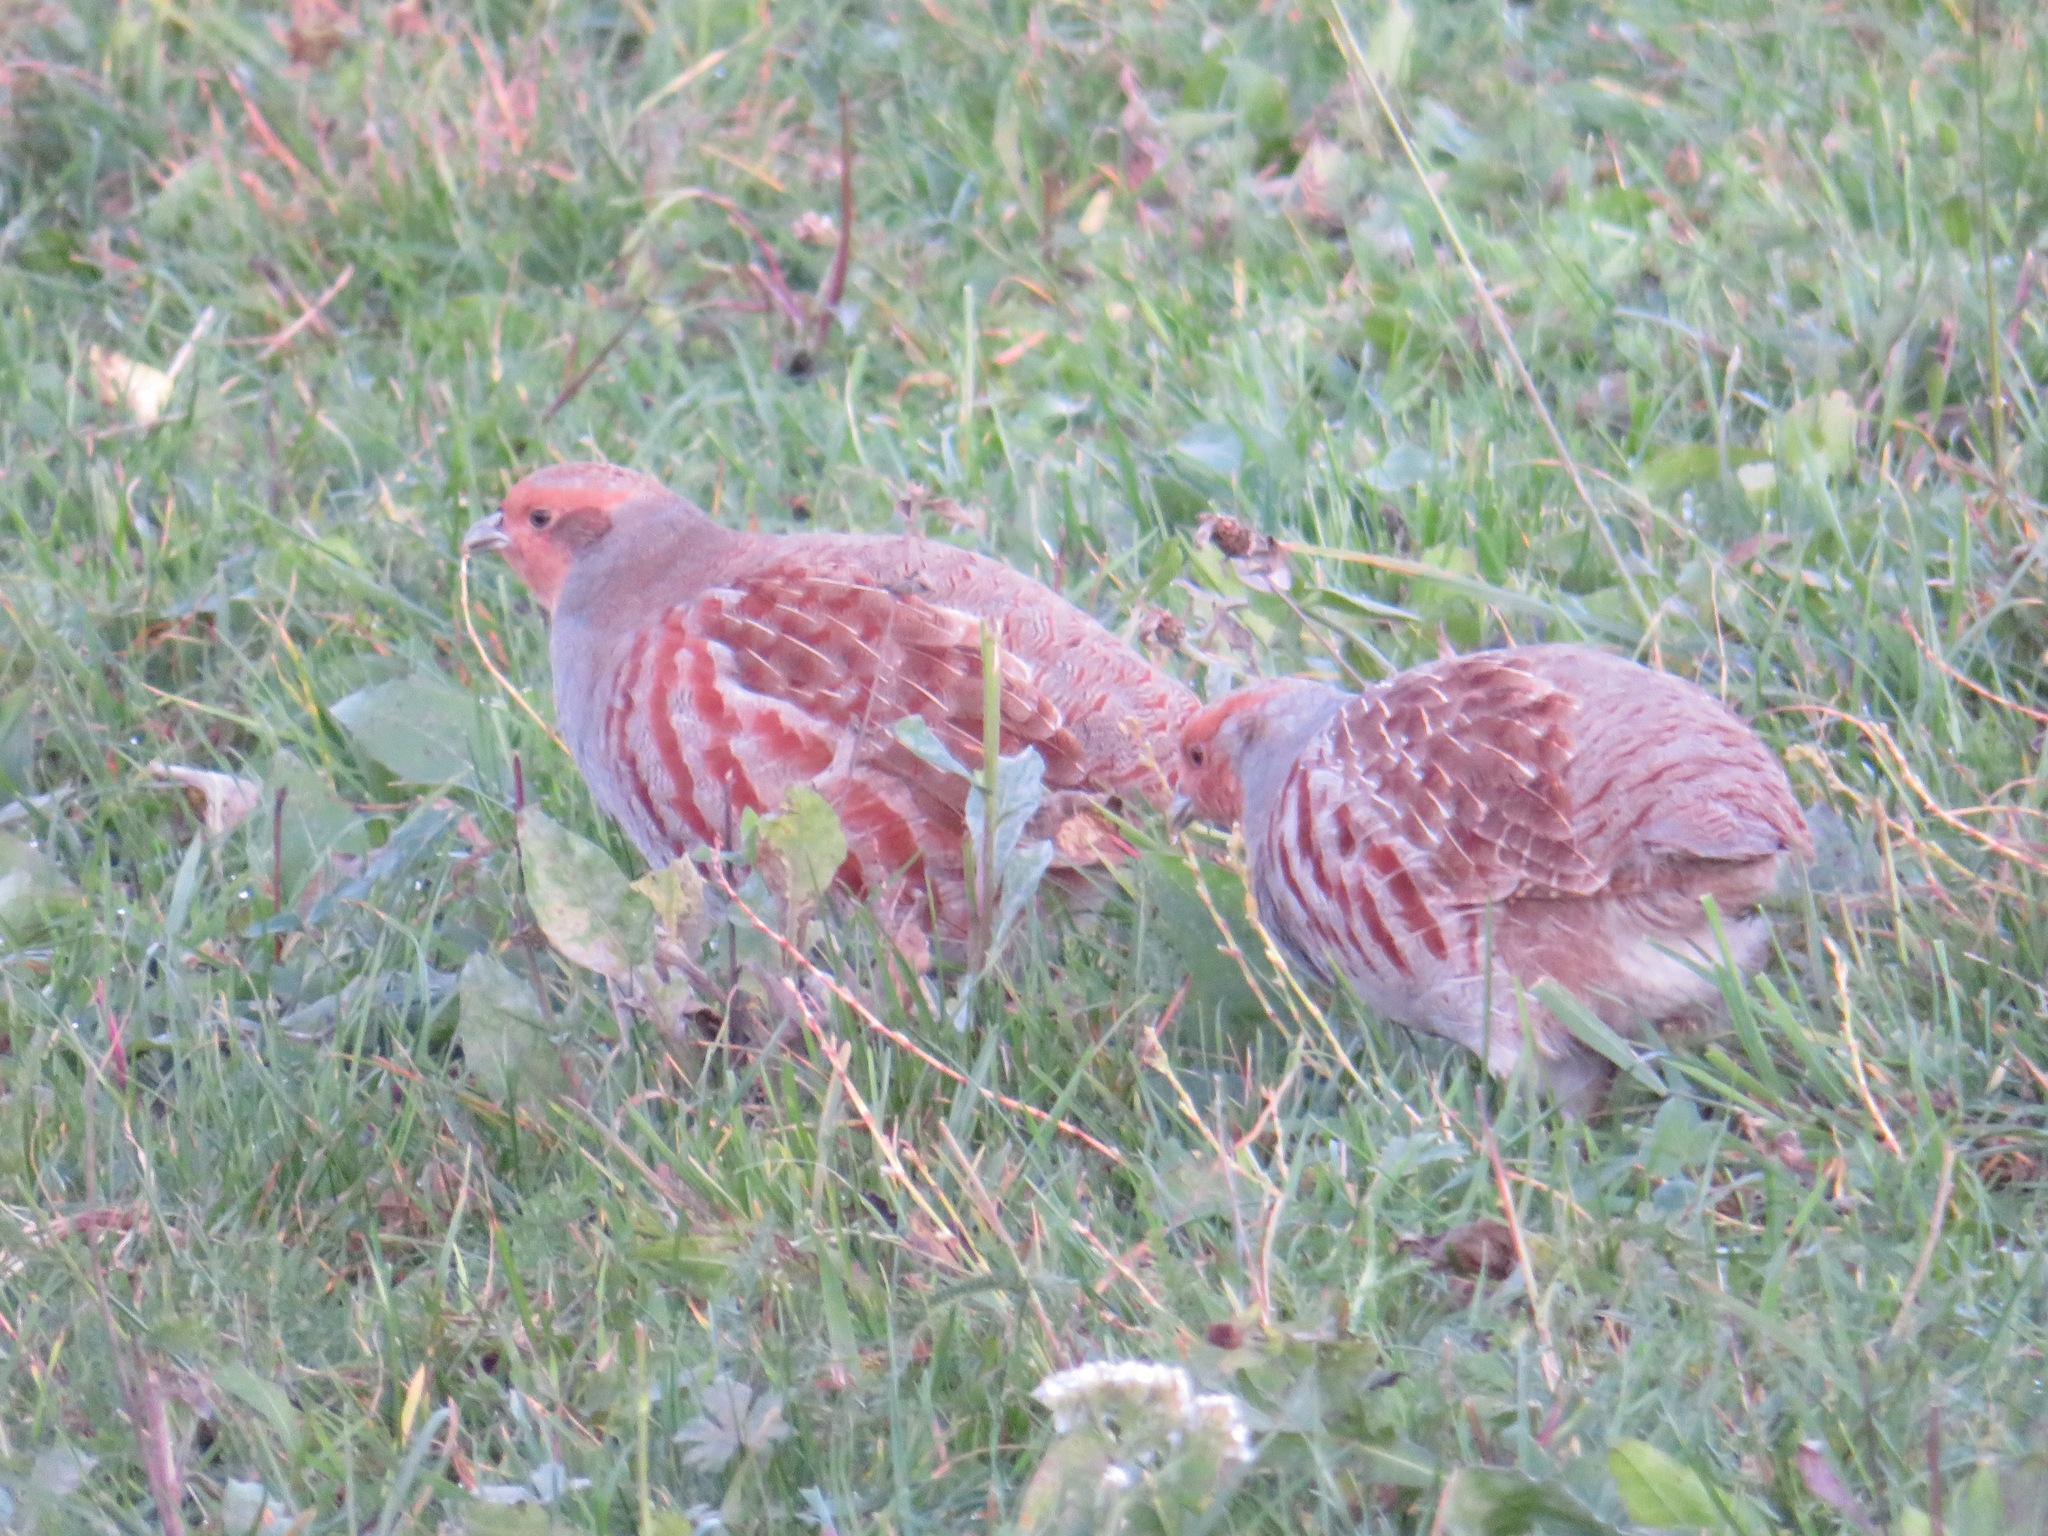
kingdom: Animalia
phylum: Chordata
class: Aves
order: Galliformes
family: Phasianidae
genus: Perdix
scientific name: Perdix perdix
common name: Grey partridge
